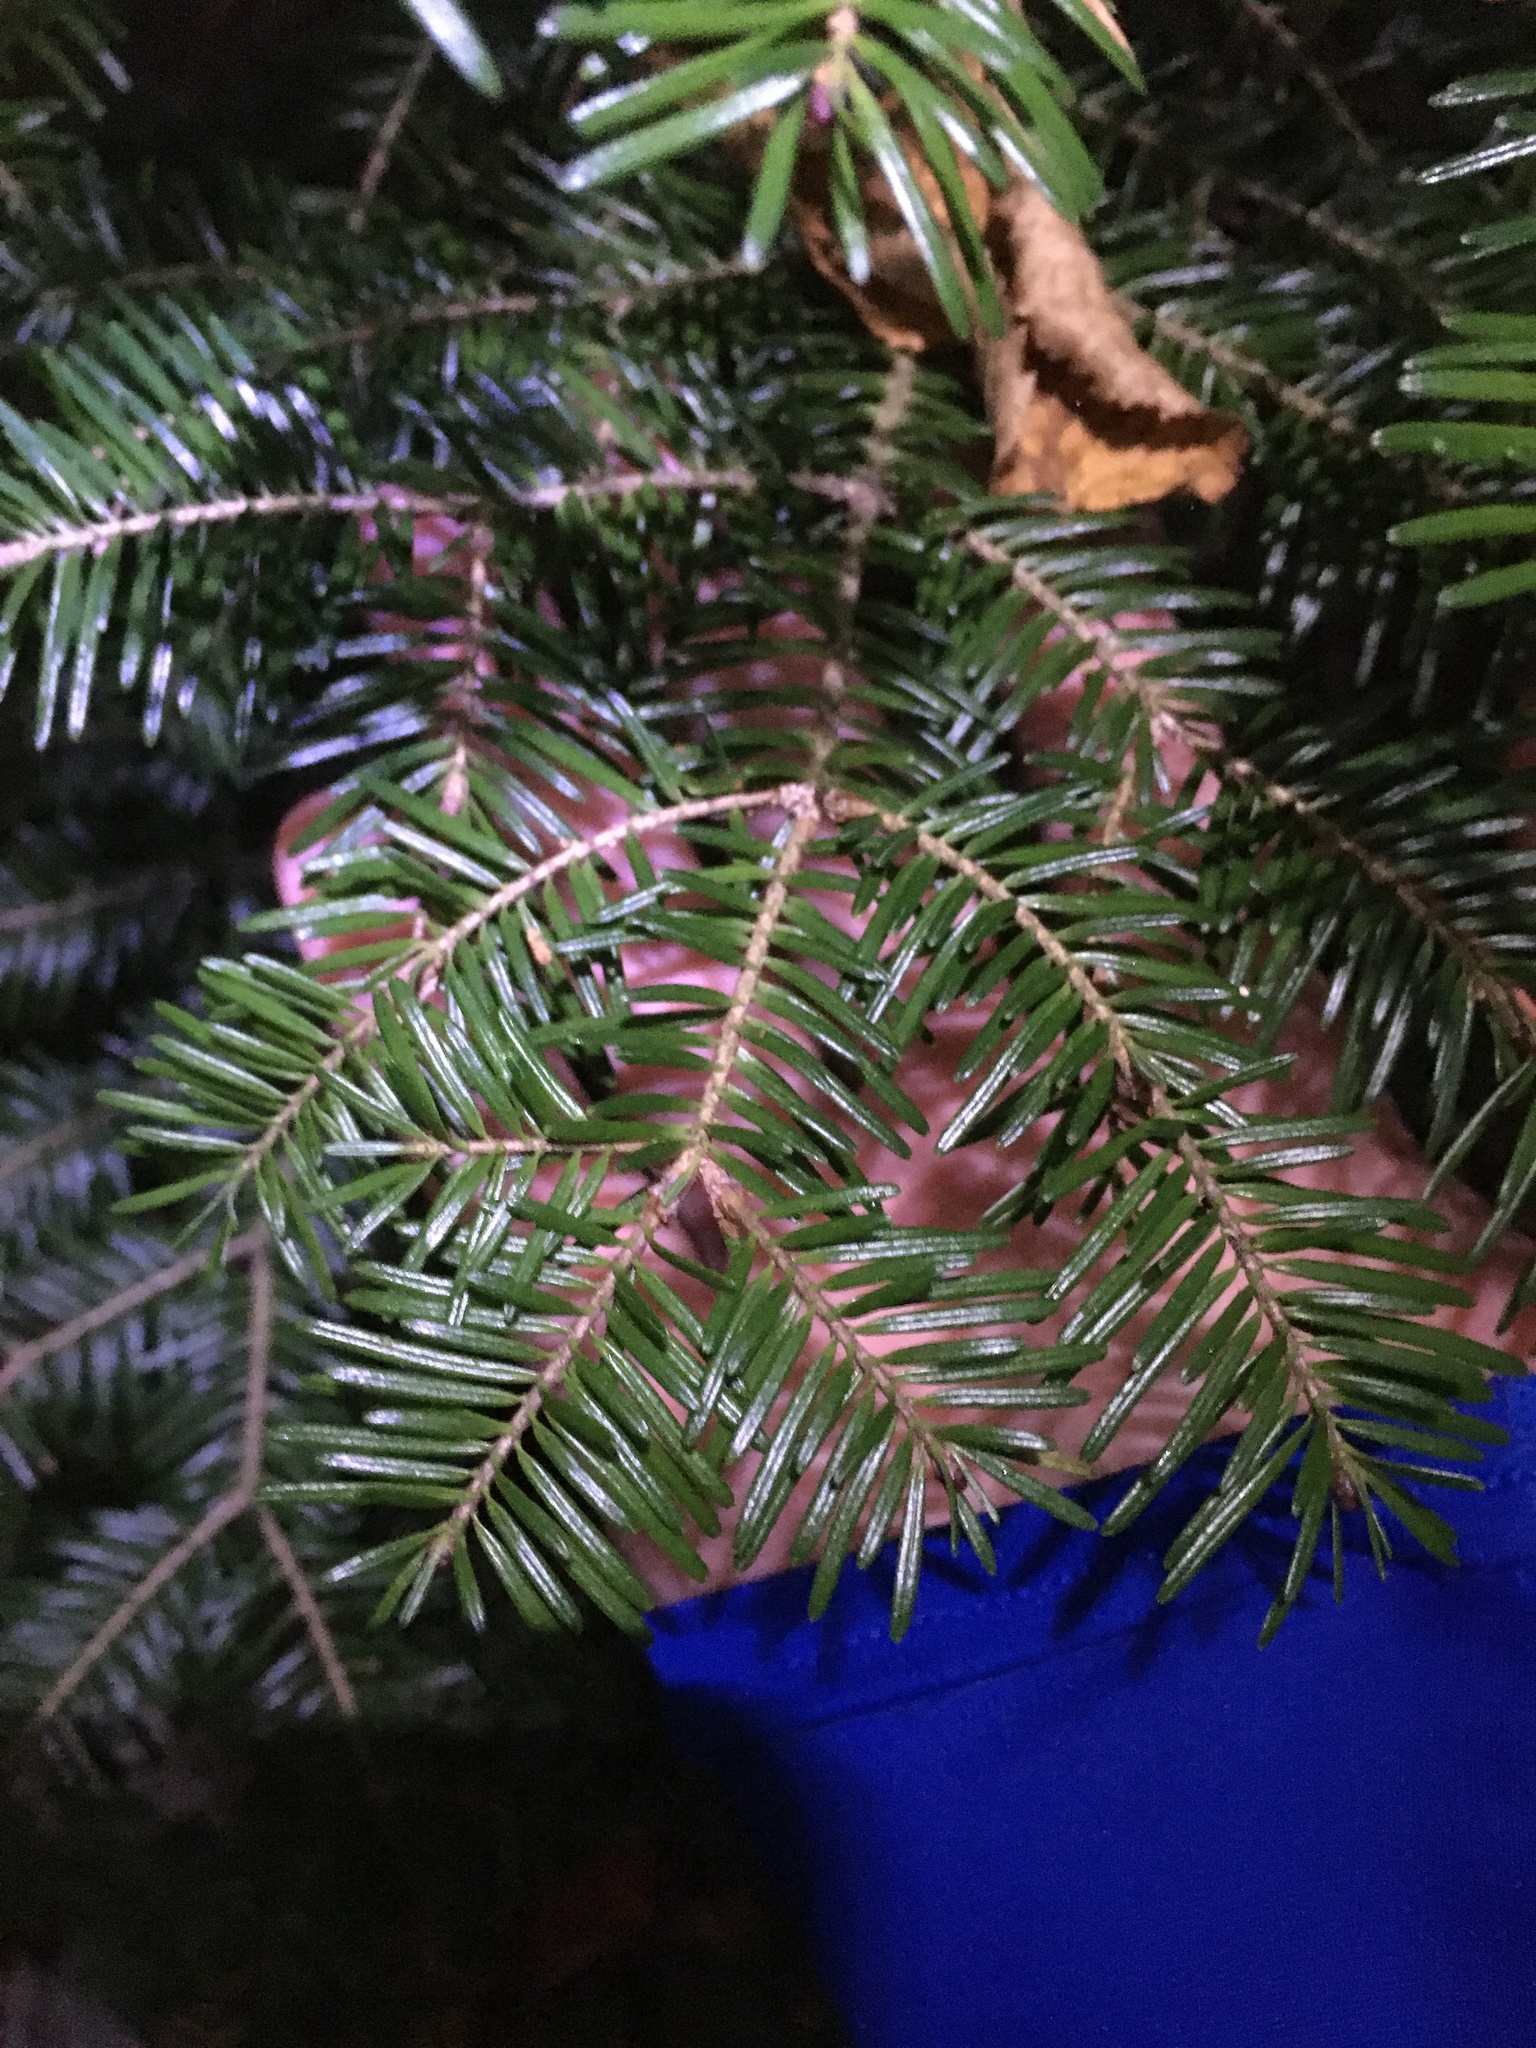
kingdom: Plantae
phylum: Tracheophyta
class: Pinopsida
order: Pinales
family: Pinaceae
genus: Abies
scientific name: Abies balsamea
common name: Balsam fir
